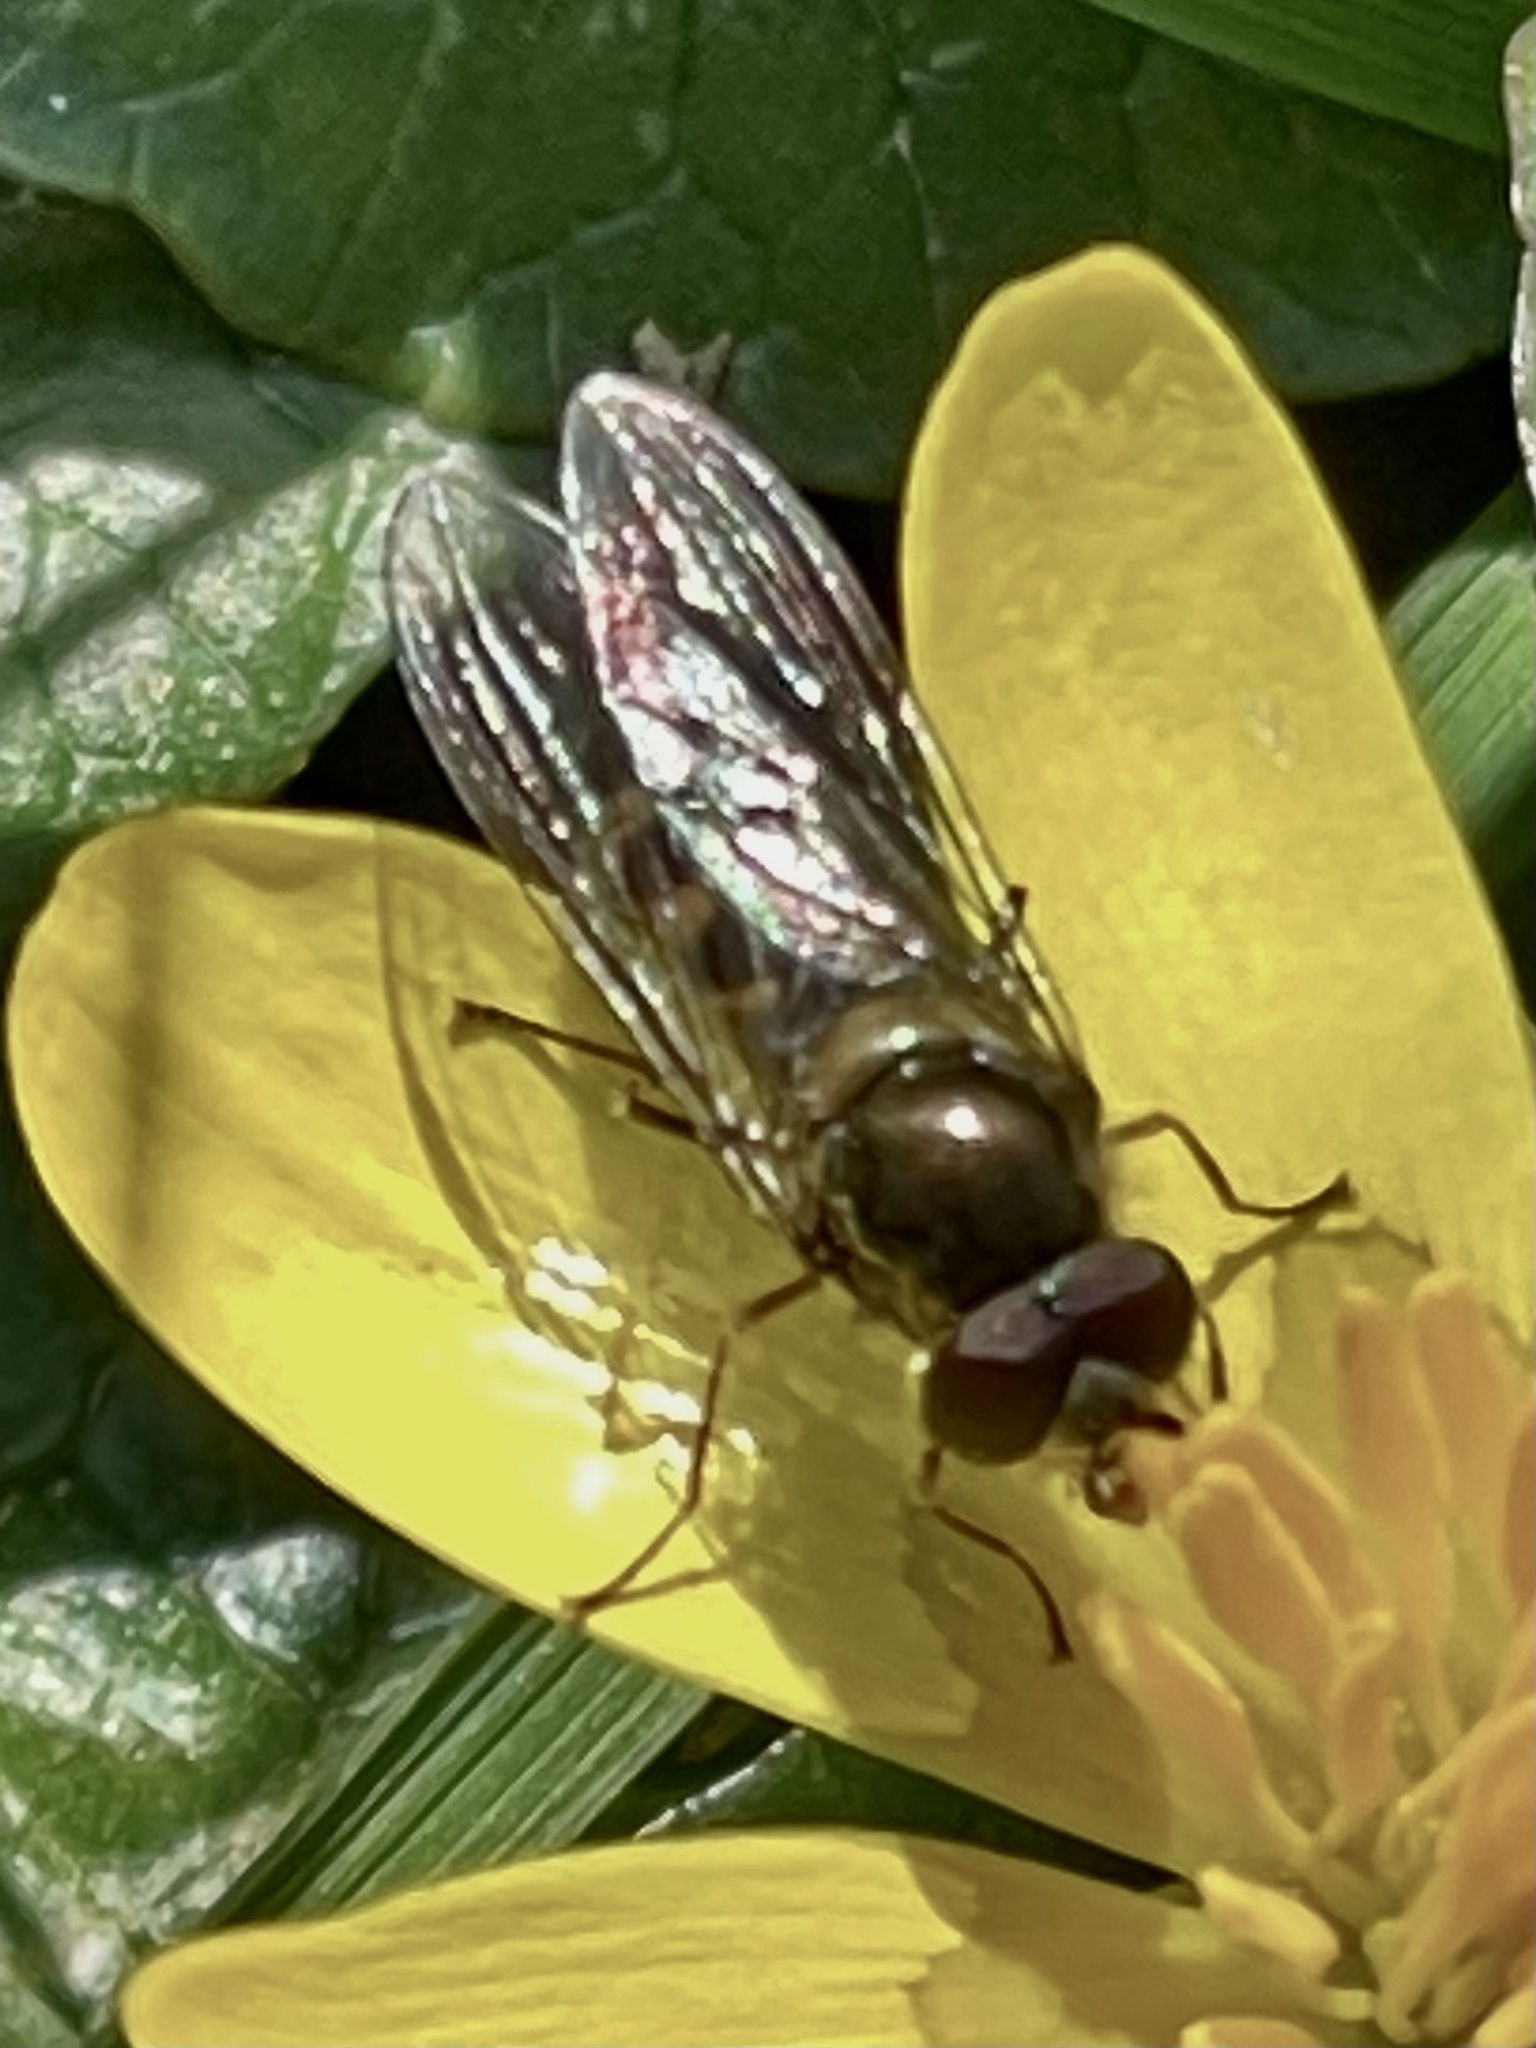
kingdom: Animalia
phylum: Arthropoda
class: Insecta
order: Diptera
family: Syrphidae
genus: Meliscaeva
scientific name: Meliscaeva auricollis
